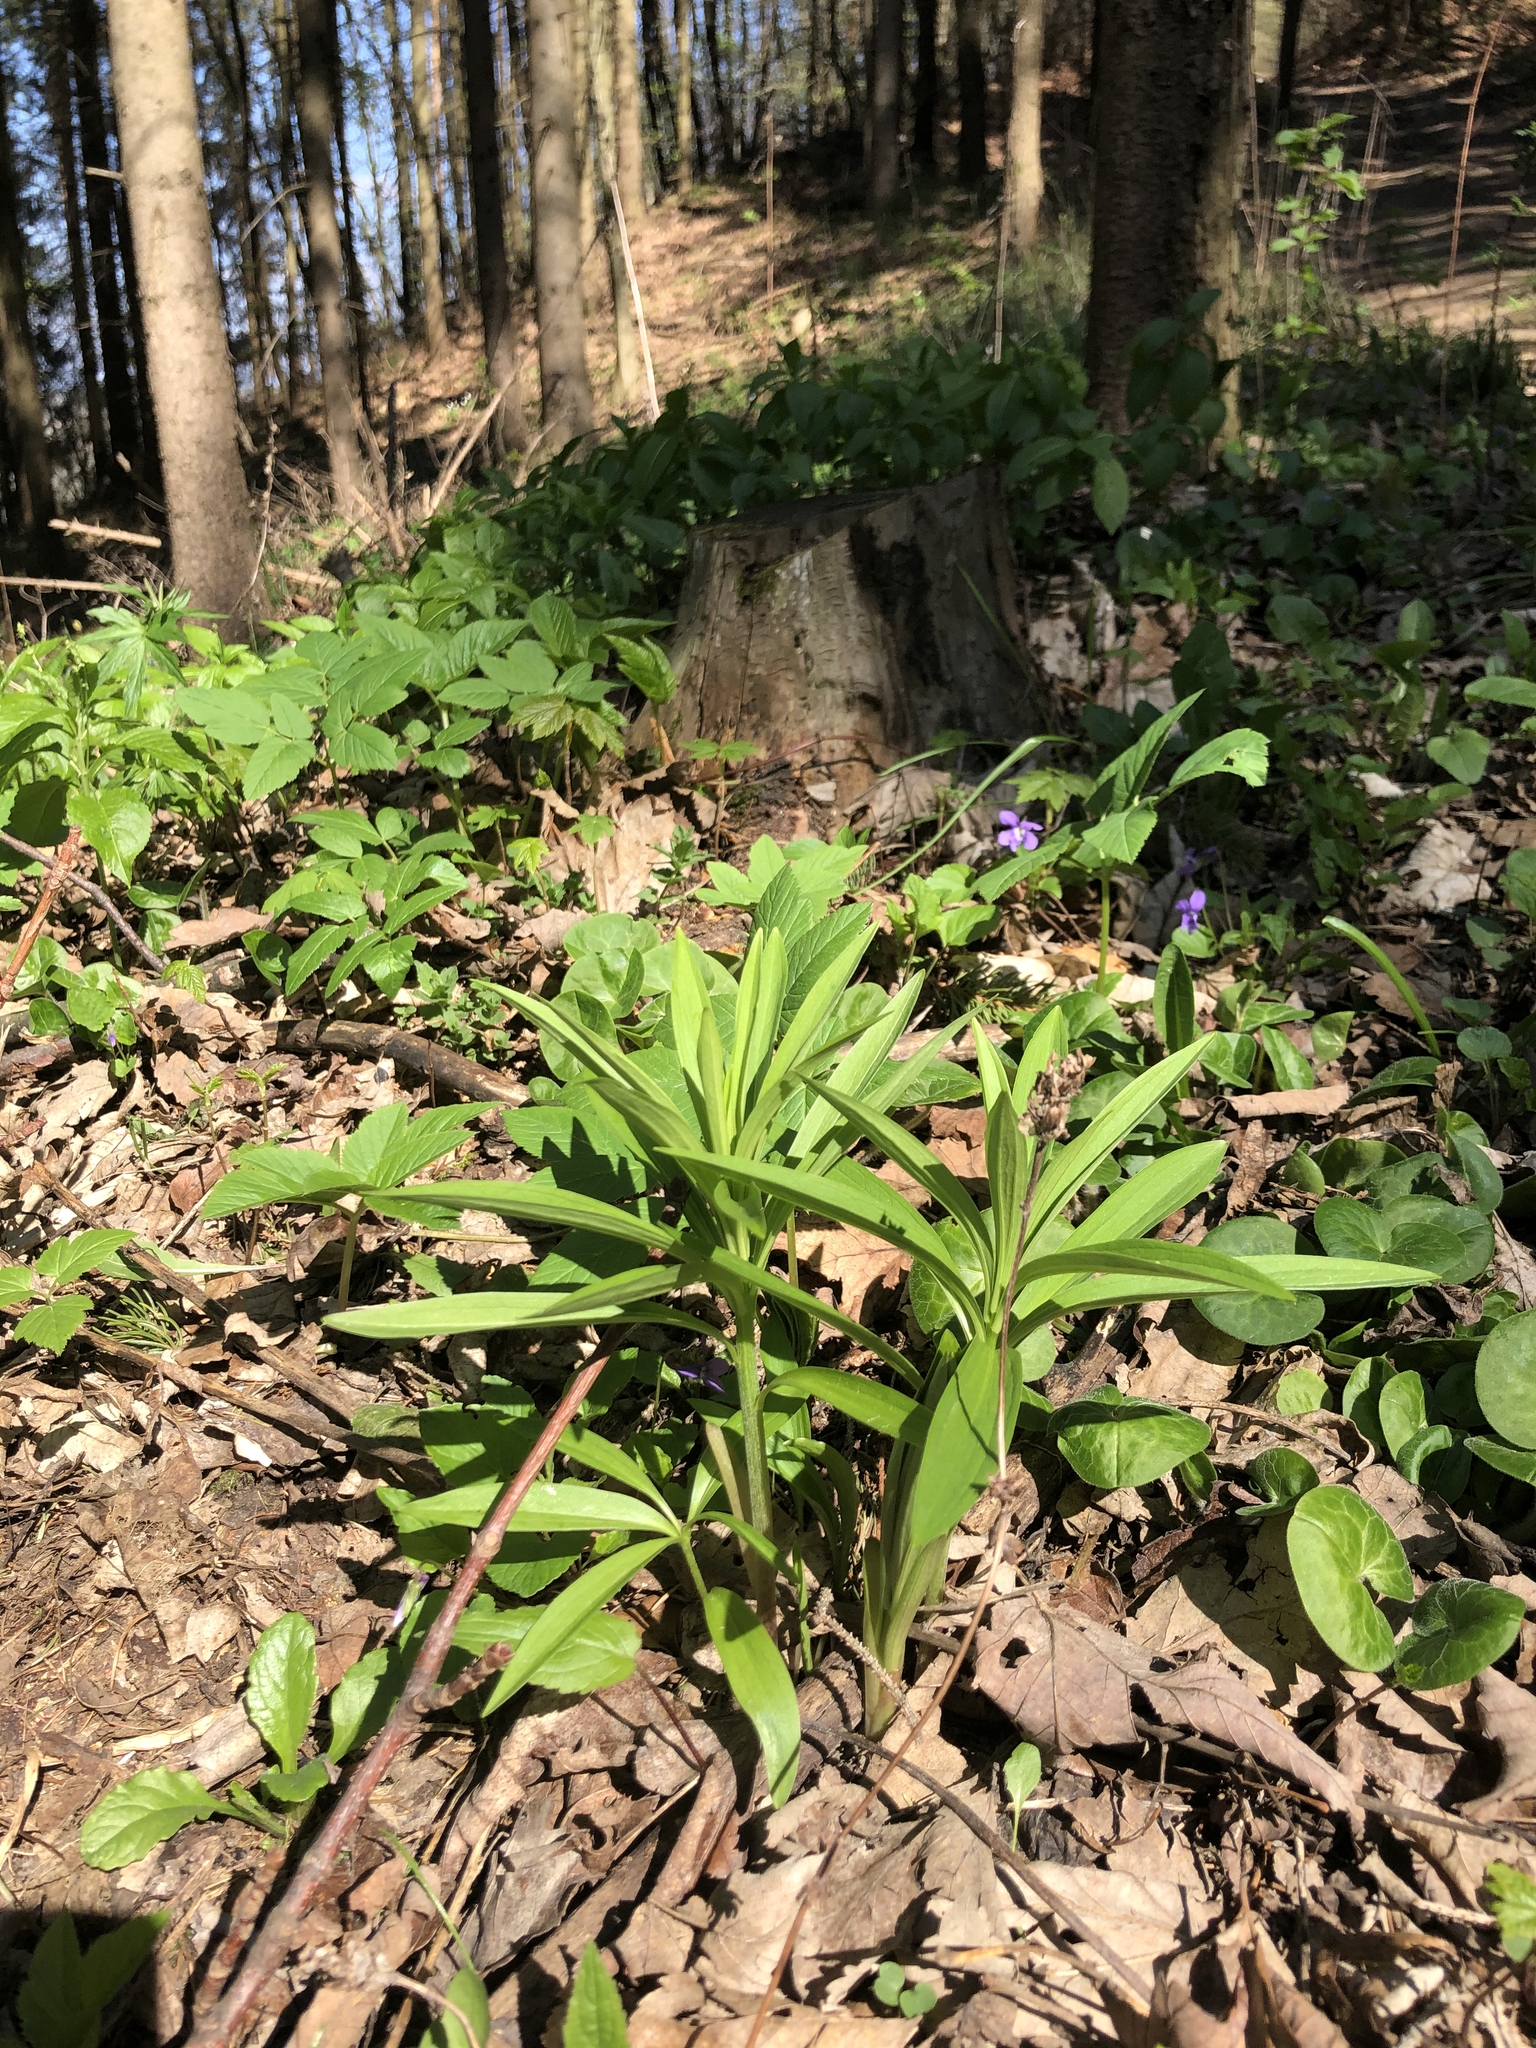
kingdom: Plantae
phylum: Tracheophyta
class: Liliopsida
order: Liliales
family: Liliaceae
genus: Lilium
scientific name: Lilium martagon
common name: Martagon lily
